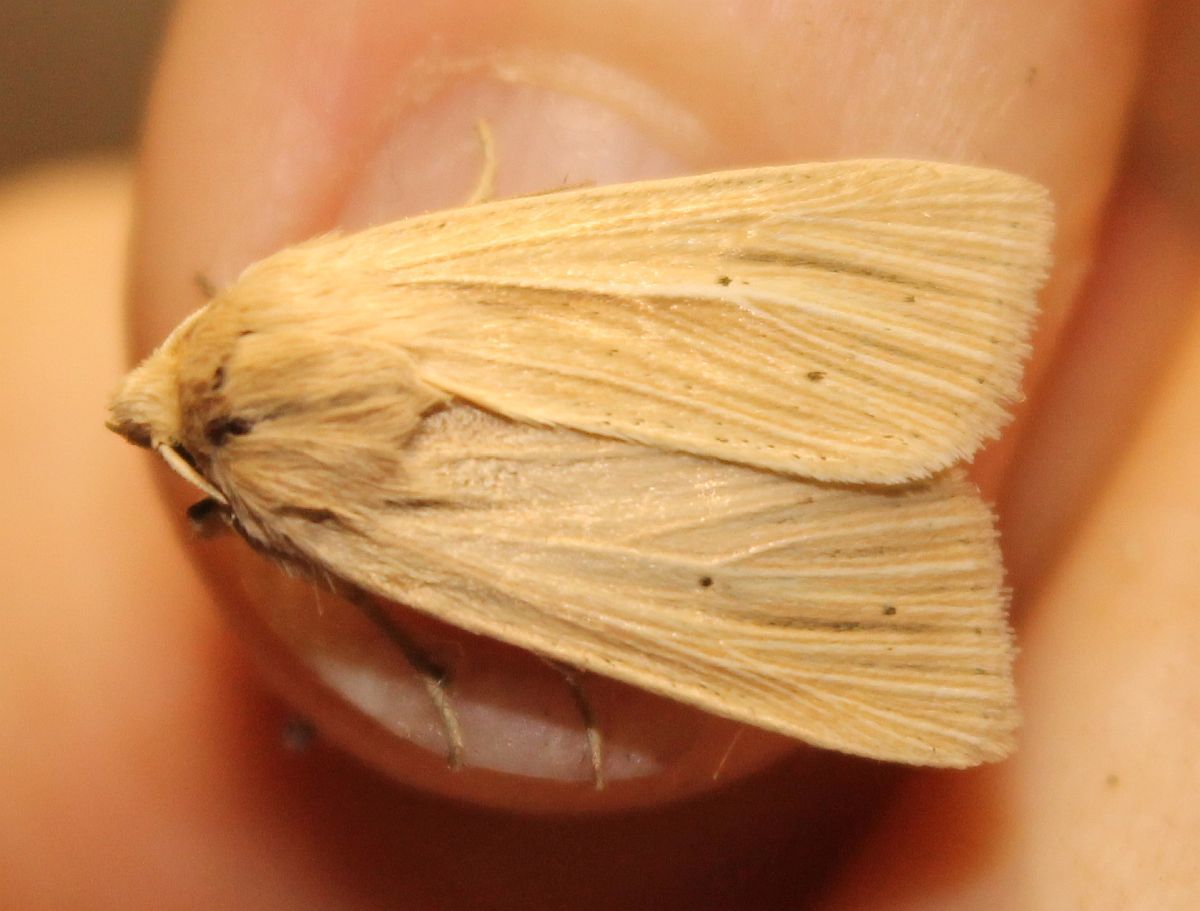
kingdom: Animalia
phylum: Arthropoda
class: Insecta
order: Lepidoptera
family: Noctuidae
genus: Mythimna
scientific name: Mythimna pallens
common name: Common wainscot
